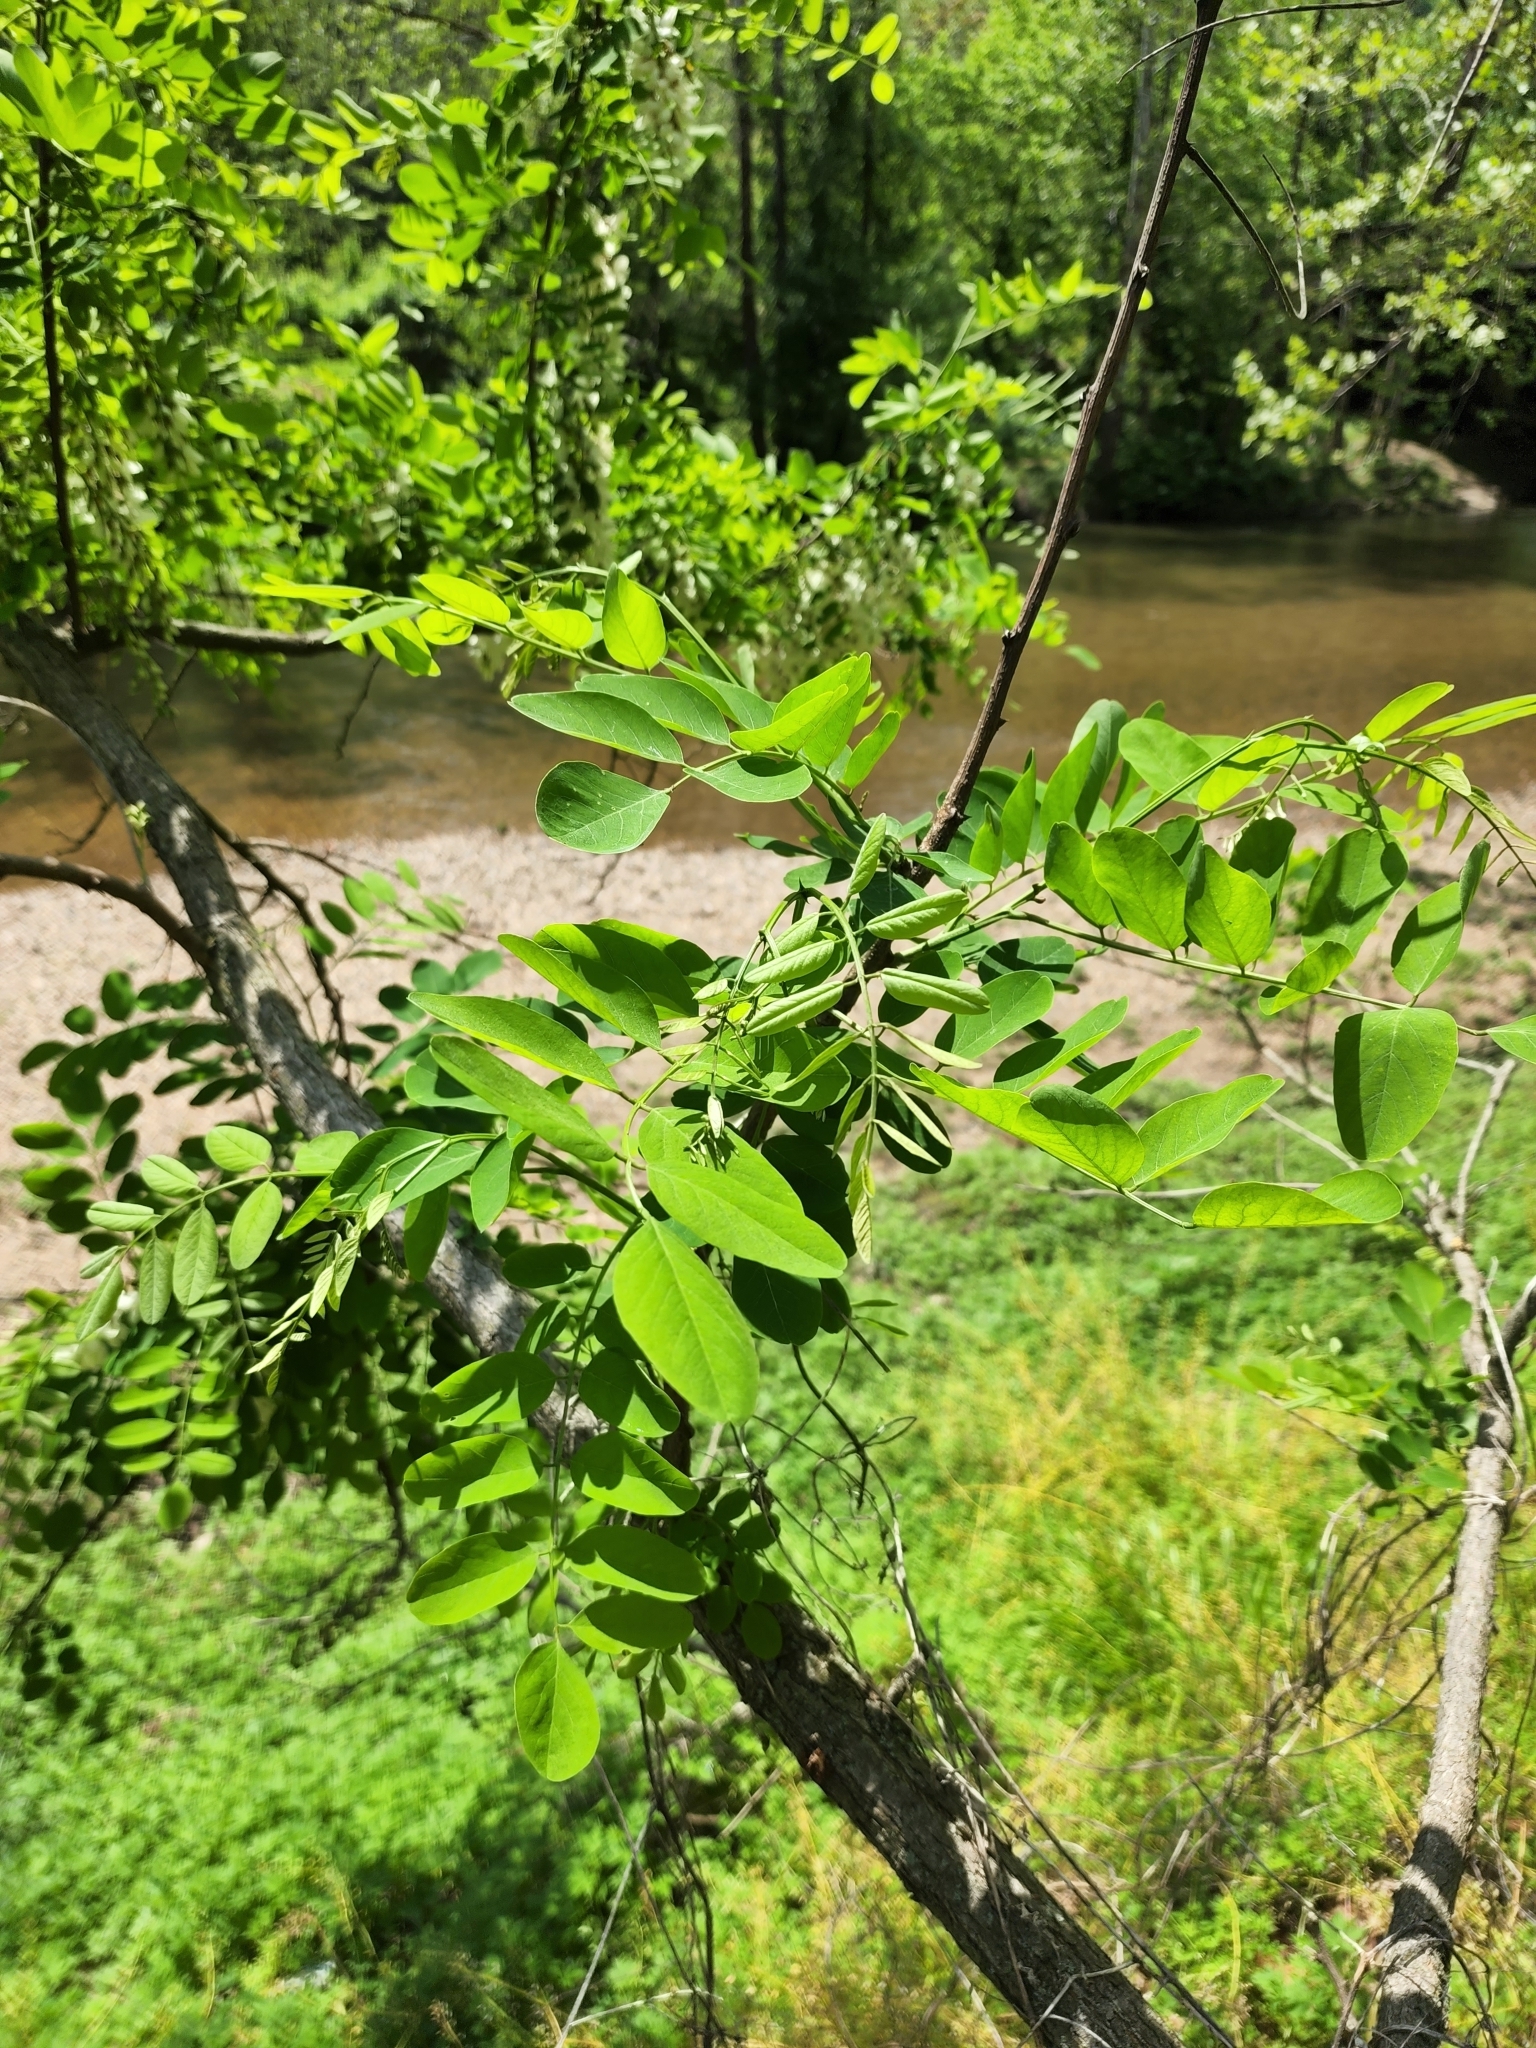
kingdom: Plantae
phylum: Tracheophyta
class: Magnoliopsida
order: Fabales
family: Fabaceae
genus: Robinia
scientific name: Robinia pseudoacacia
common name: Black locust
